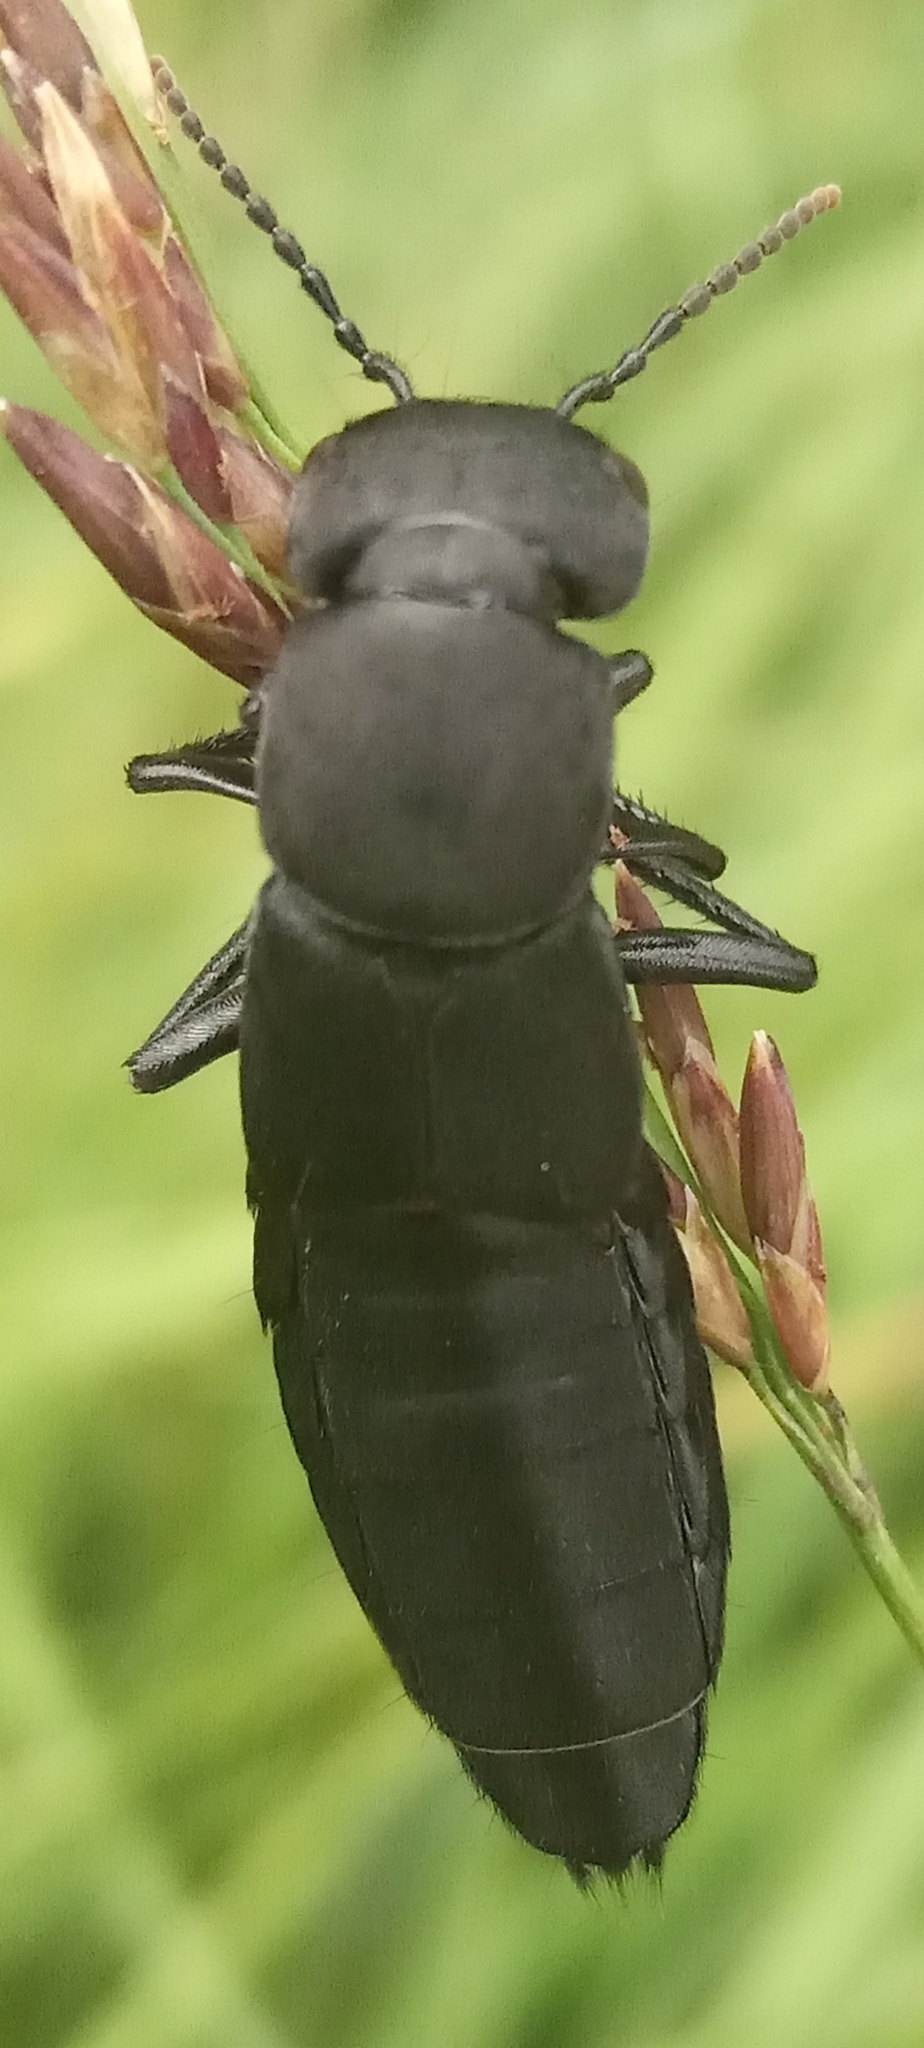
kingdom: Animalia
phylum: Arthropoda
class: Insecta
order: Coleoptera
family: Staphylinidae
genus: Ocypus
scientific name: Ocypus olens
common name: Devil's coach-horse
